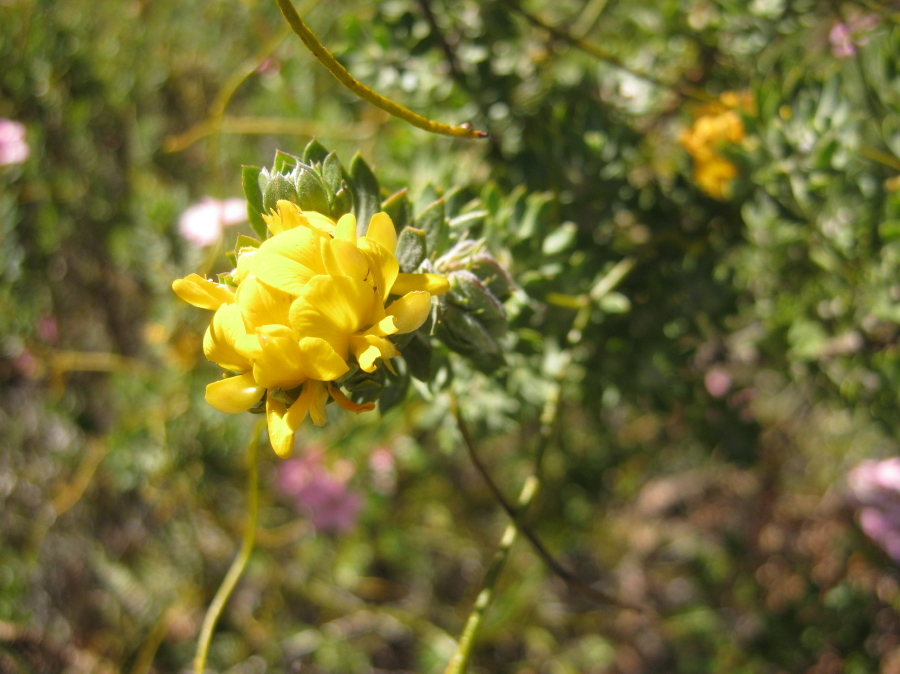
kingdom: Plantae
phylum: Tracheophyta
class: Magnoliopsida
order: Fabales
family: Fabaceae
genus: Aspalathus
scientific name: Aspalathus securifolia
